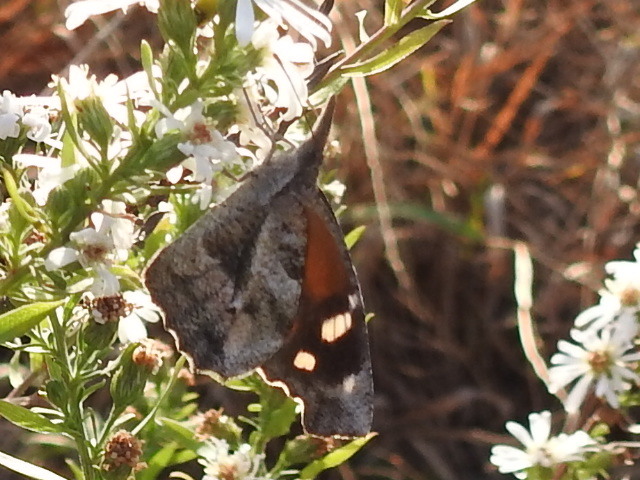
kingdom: Animalia
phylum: Arthropoda
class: Insecta
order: Lepidoptera
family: Nymphalidae
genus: Libytheana
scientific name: Libytheana carinenta
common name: American snout
